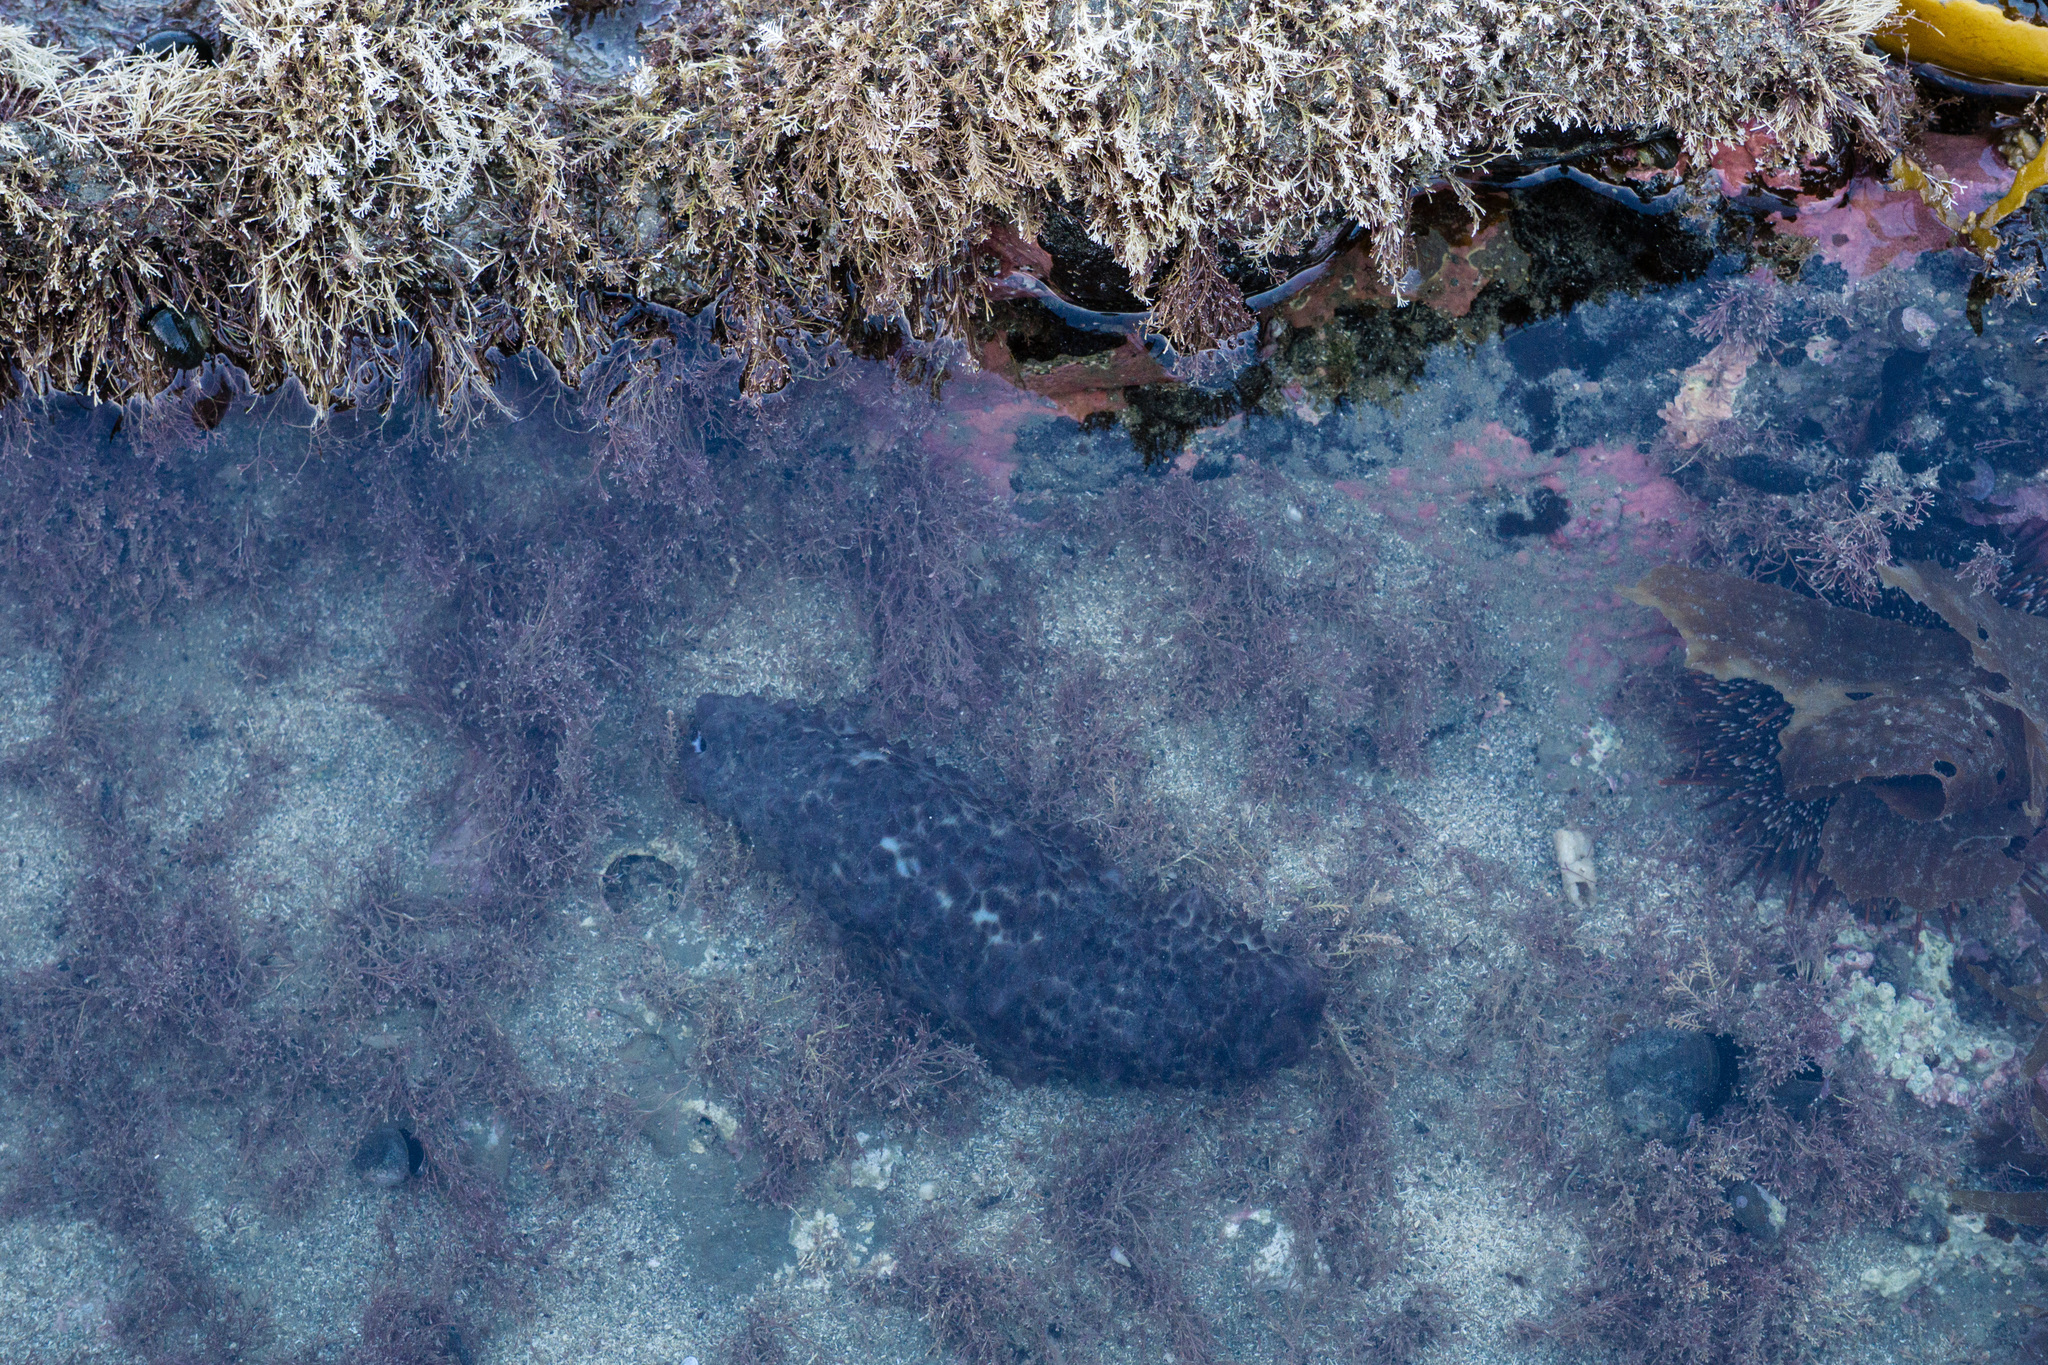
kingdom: Animalia
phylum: Echinodermata
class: Holothuroidea
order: Synallactida
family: Stichopodidae
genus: Australostichopus
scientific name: Australostichopus mollis
